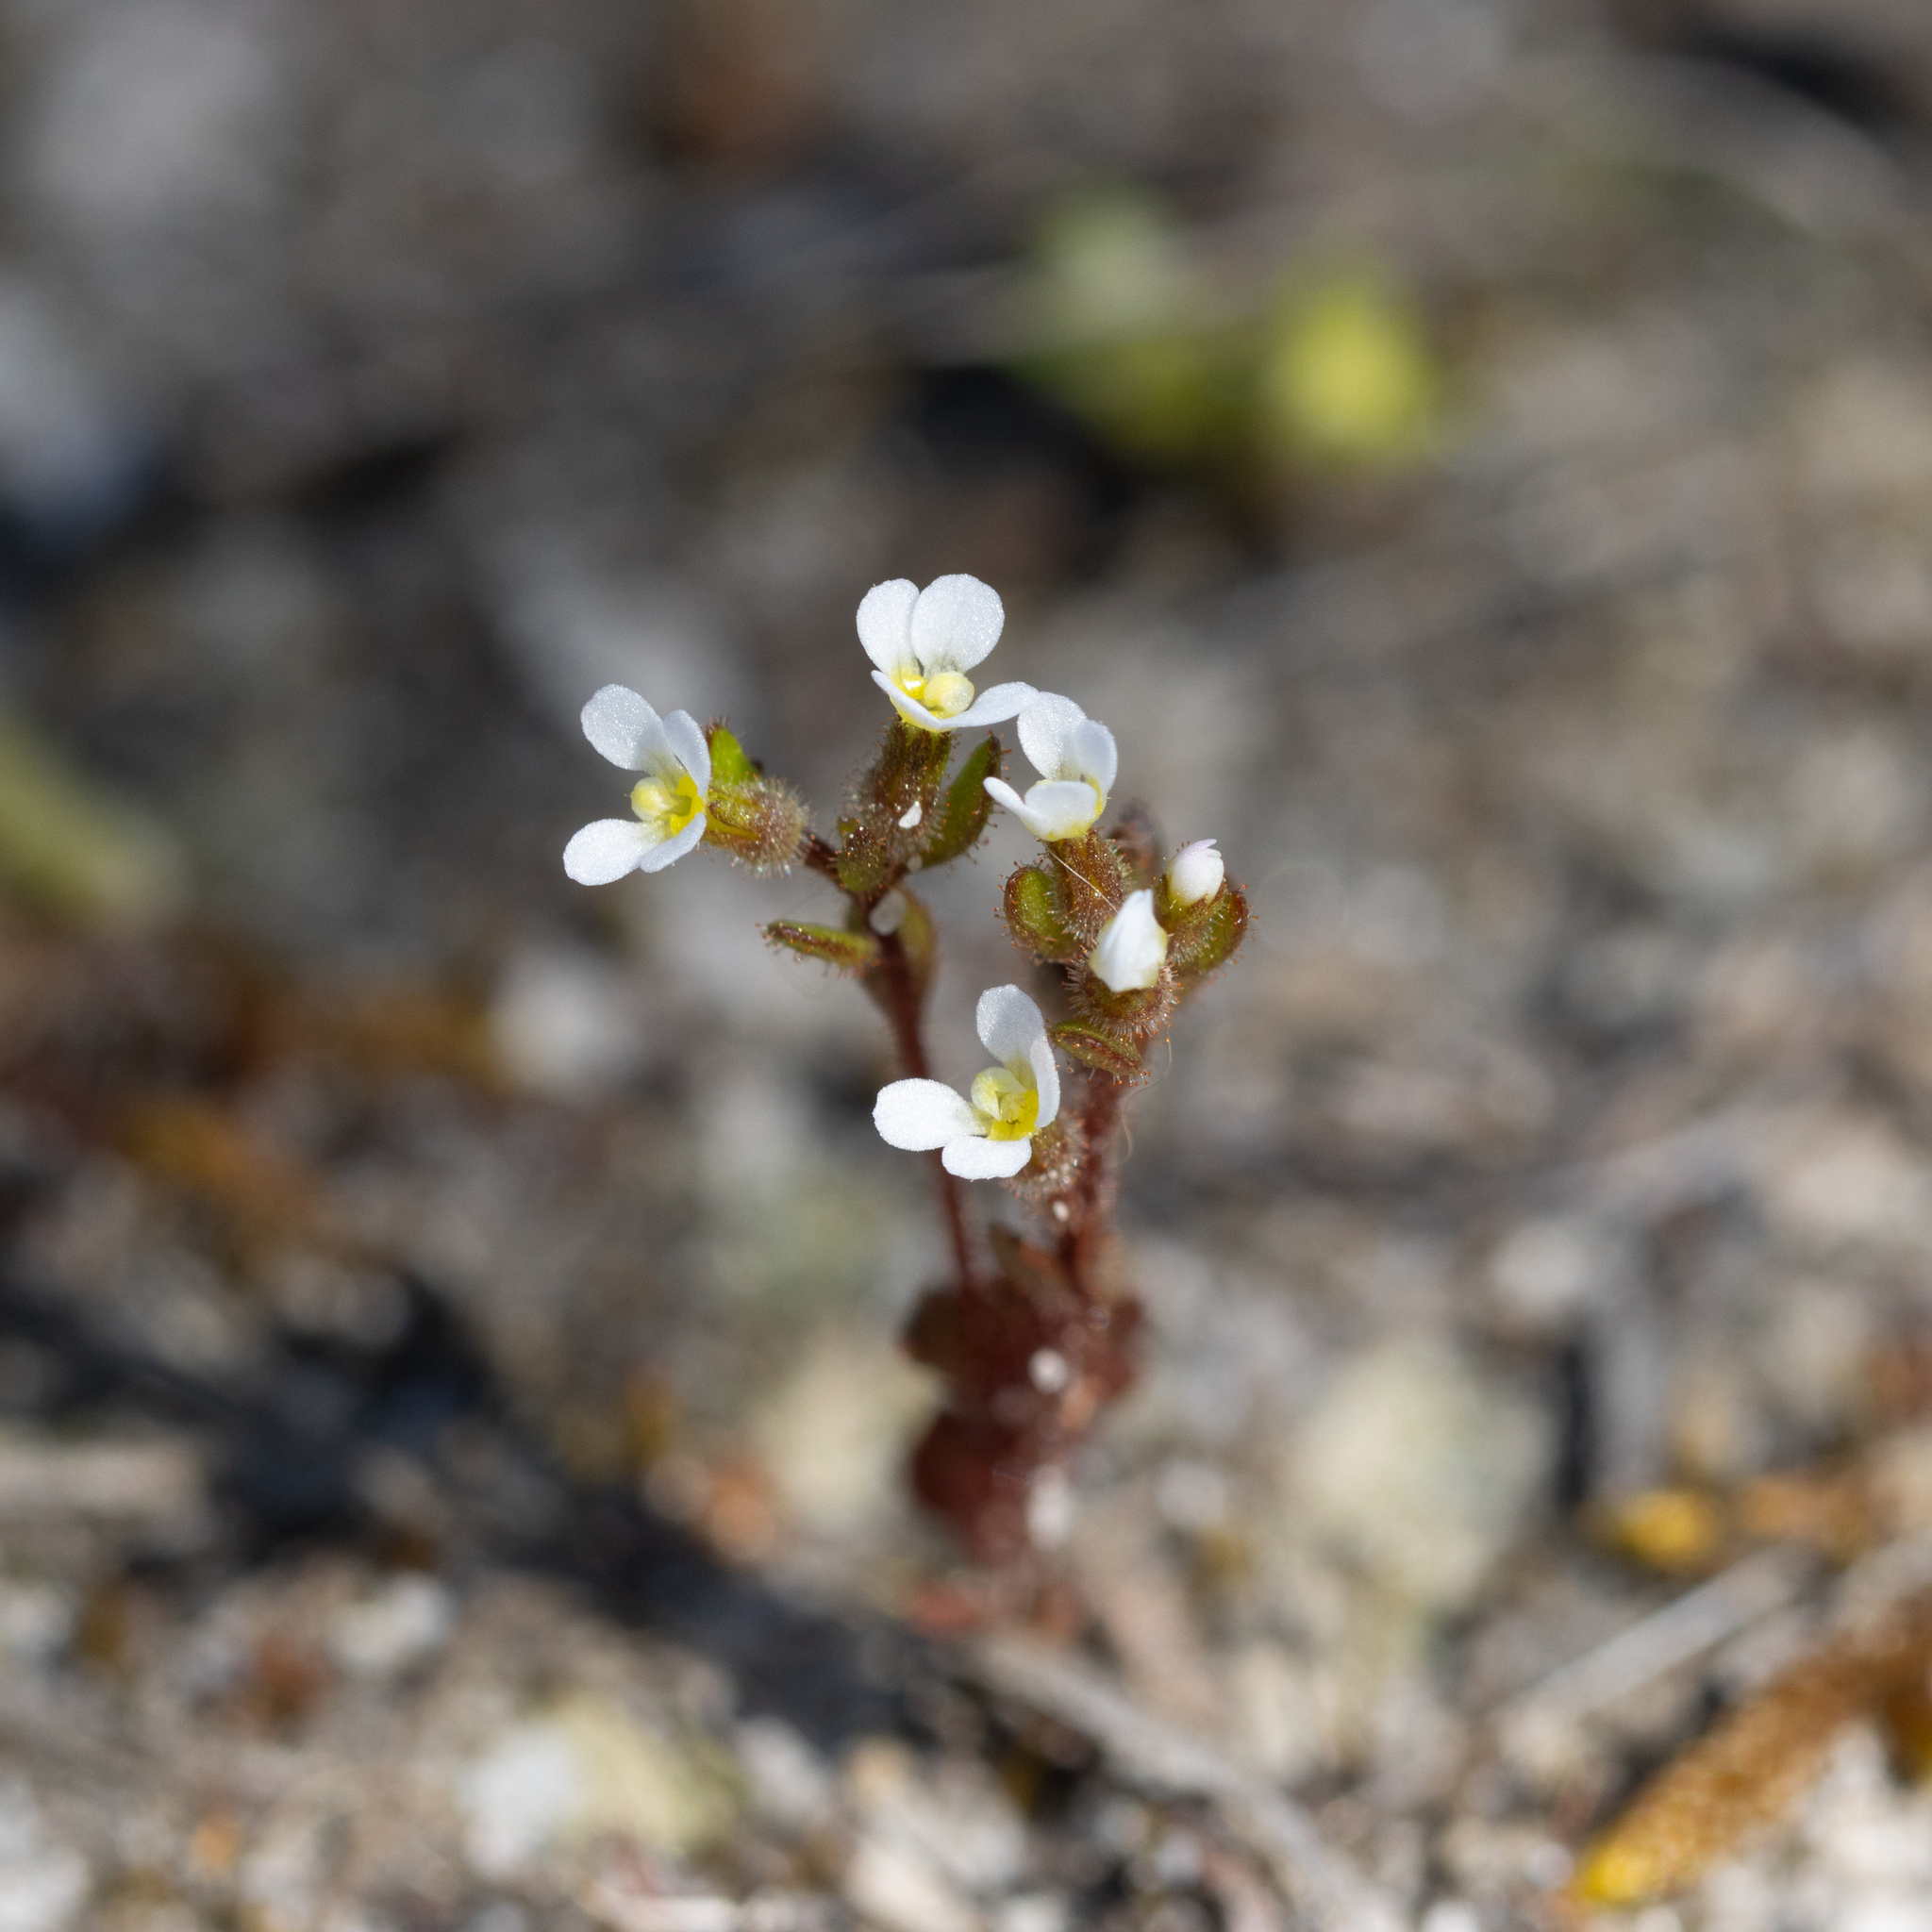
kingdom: Plantae
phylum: Tracheophyta
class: Magnoliopsida
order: Asterales
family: Stylidiaceae
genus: Levenhookia
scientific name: Levenhookia dubia
